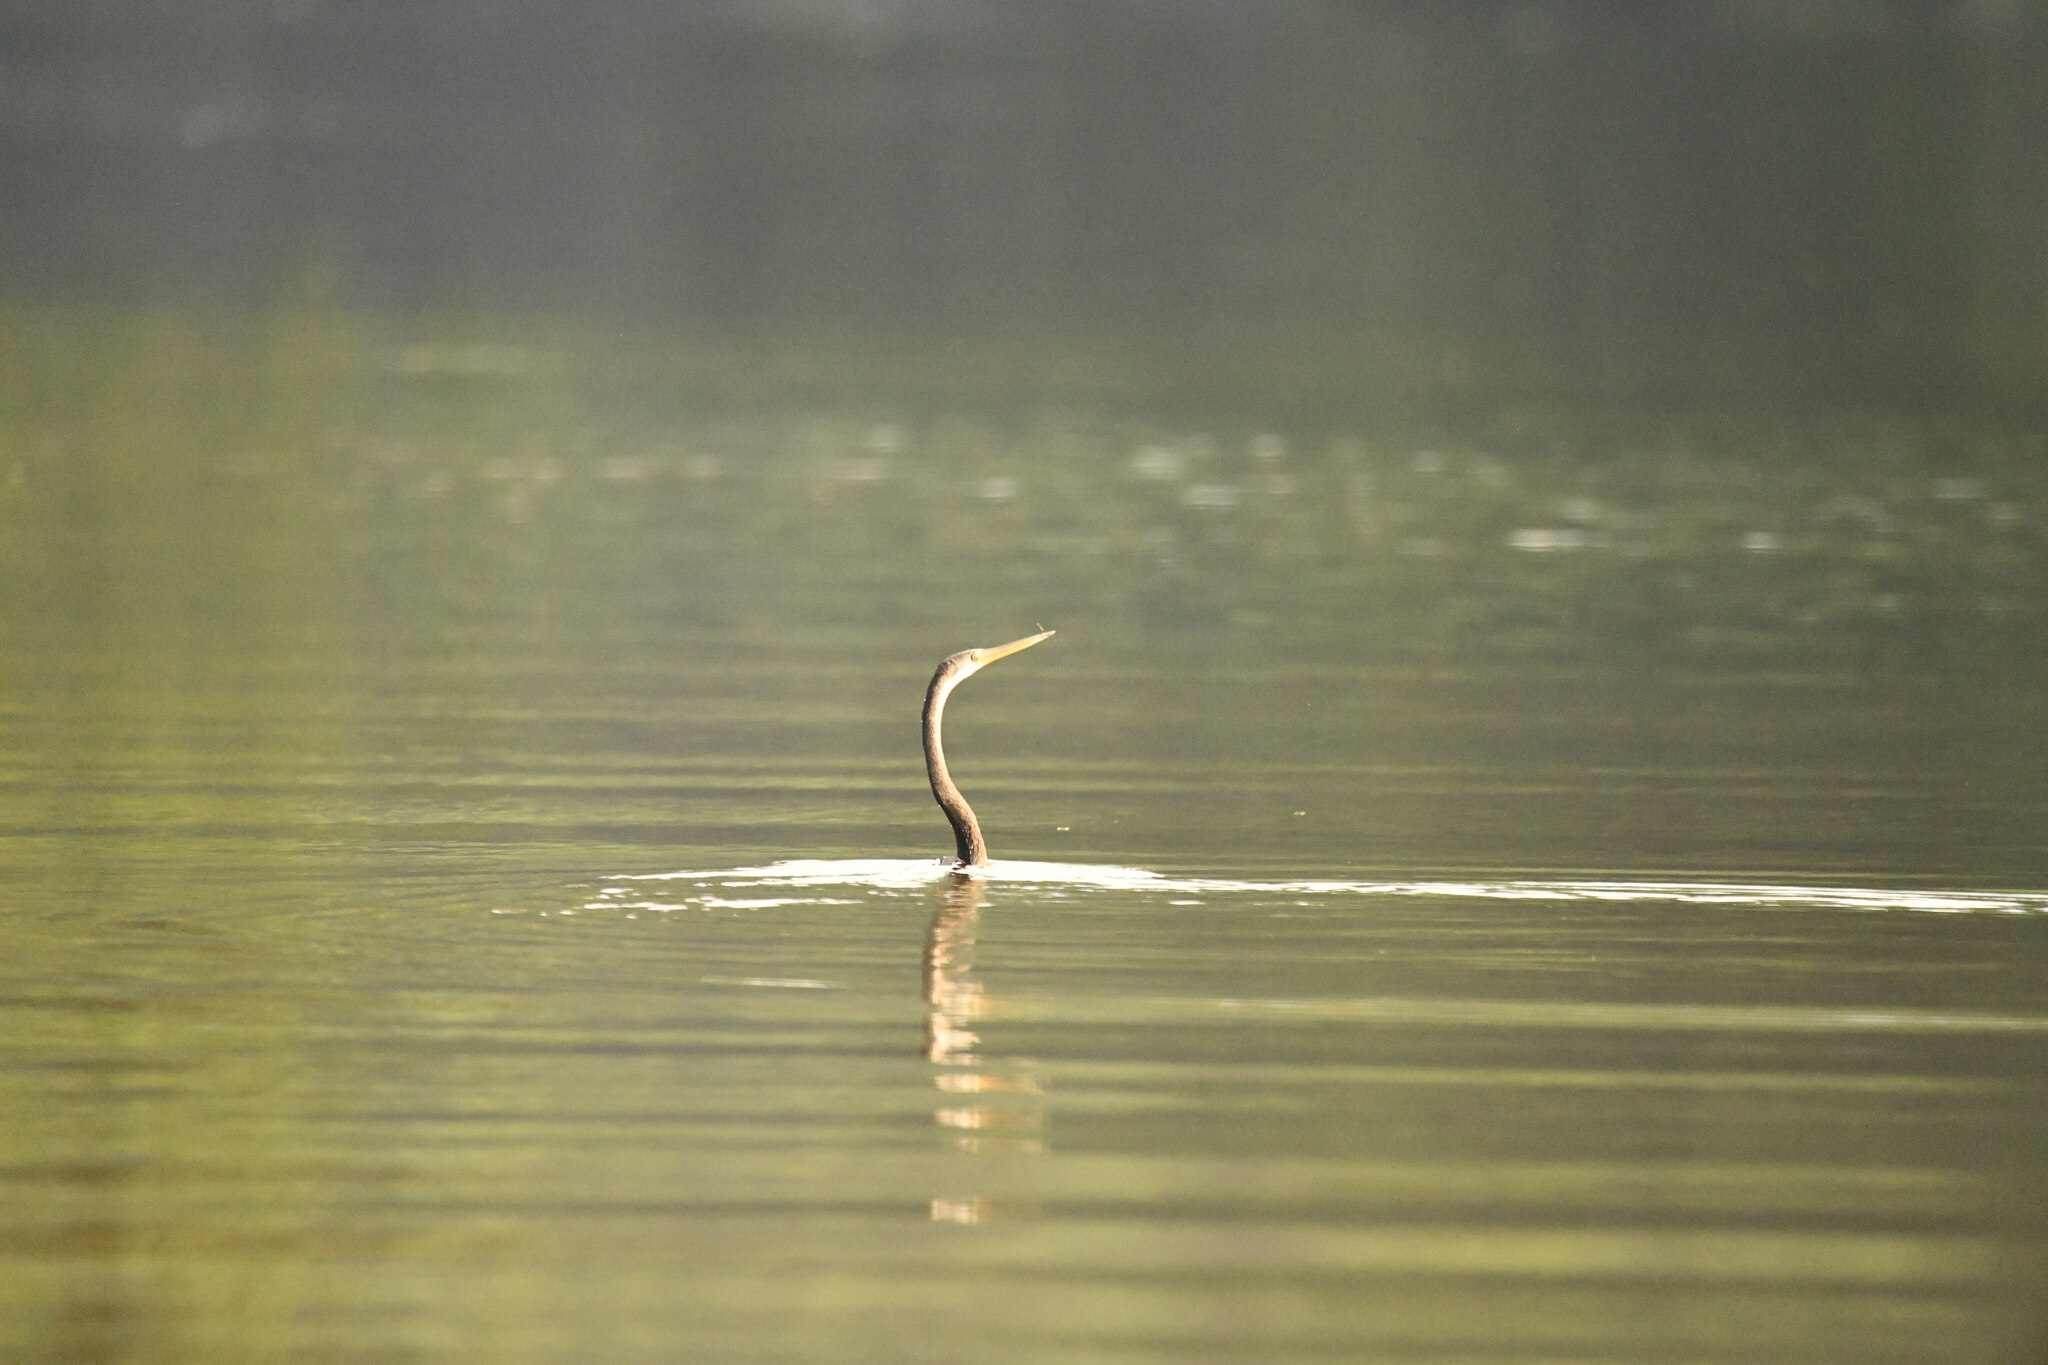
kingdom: Animalia
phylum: Chordata
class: Aves
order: Suliformes
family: Anhingidae
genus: Anhinga
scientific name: Anhinga melanogaster
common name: Oriental darter
